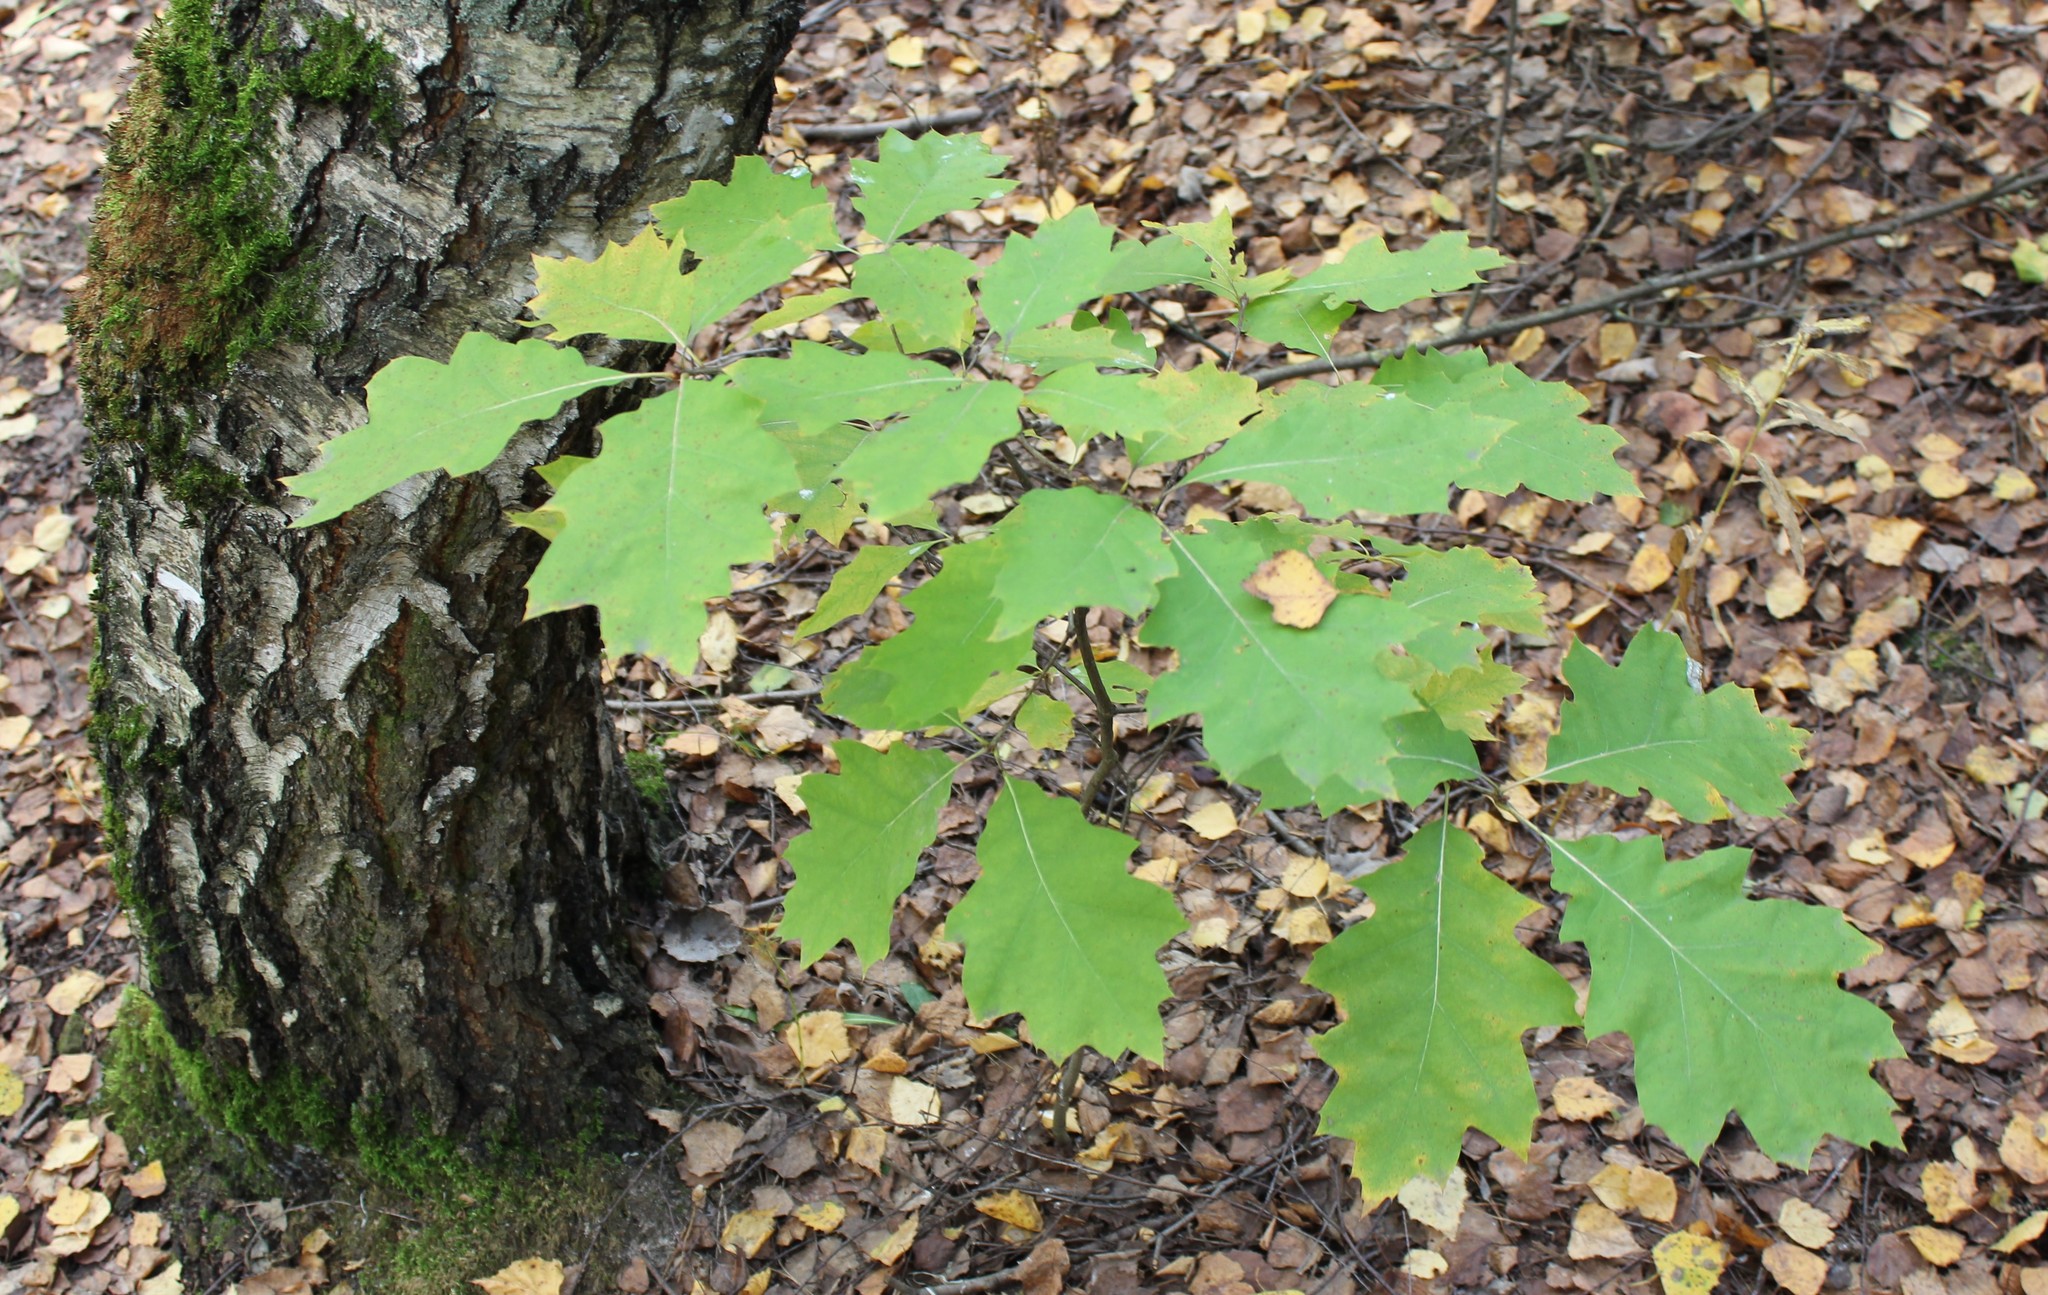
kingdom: Plantae
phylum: Tracheophyta
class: Magnoliopsida
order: Fagales
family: Fagaceae
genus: Quercus
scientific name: Quercus rubra
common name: Red oak
